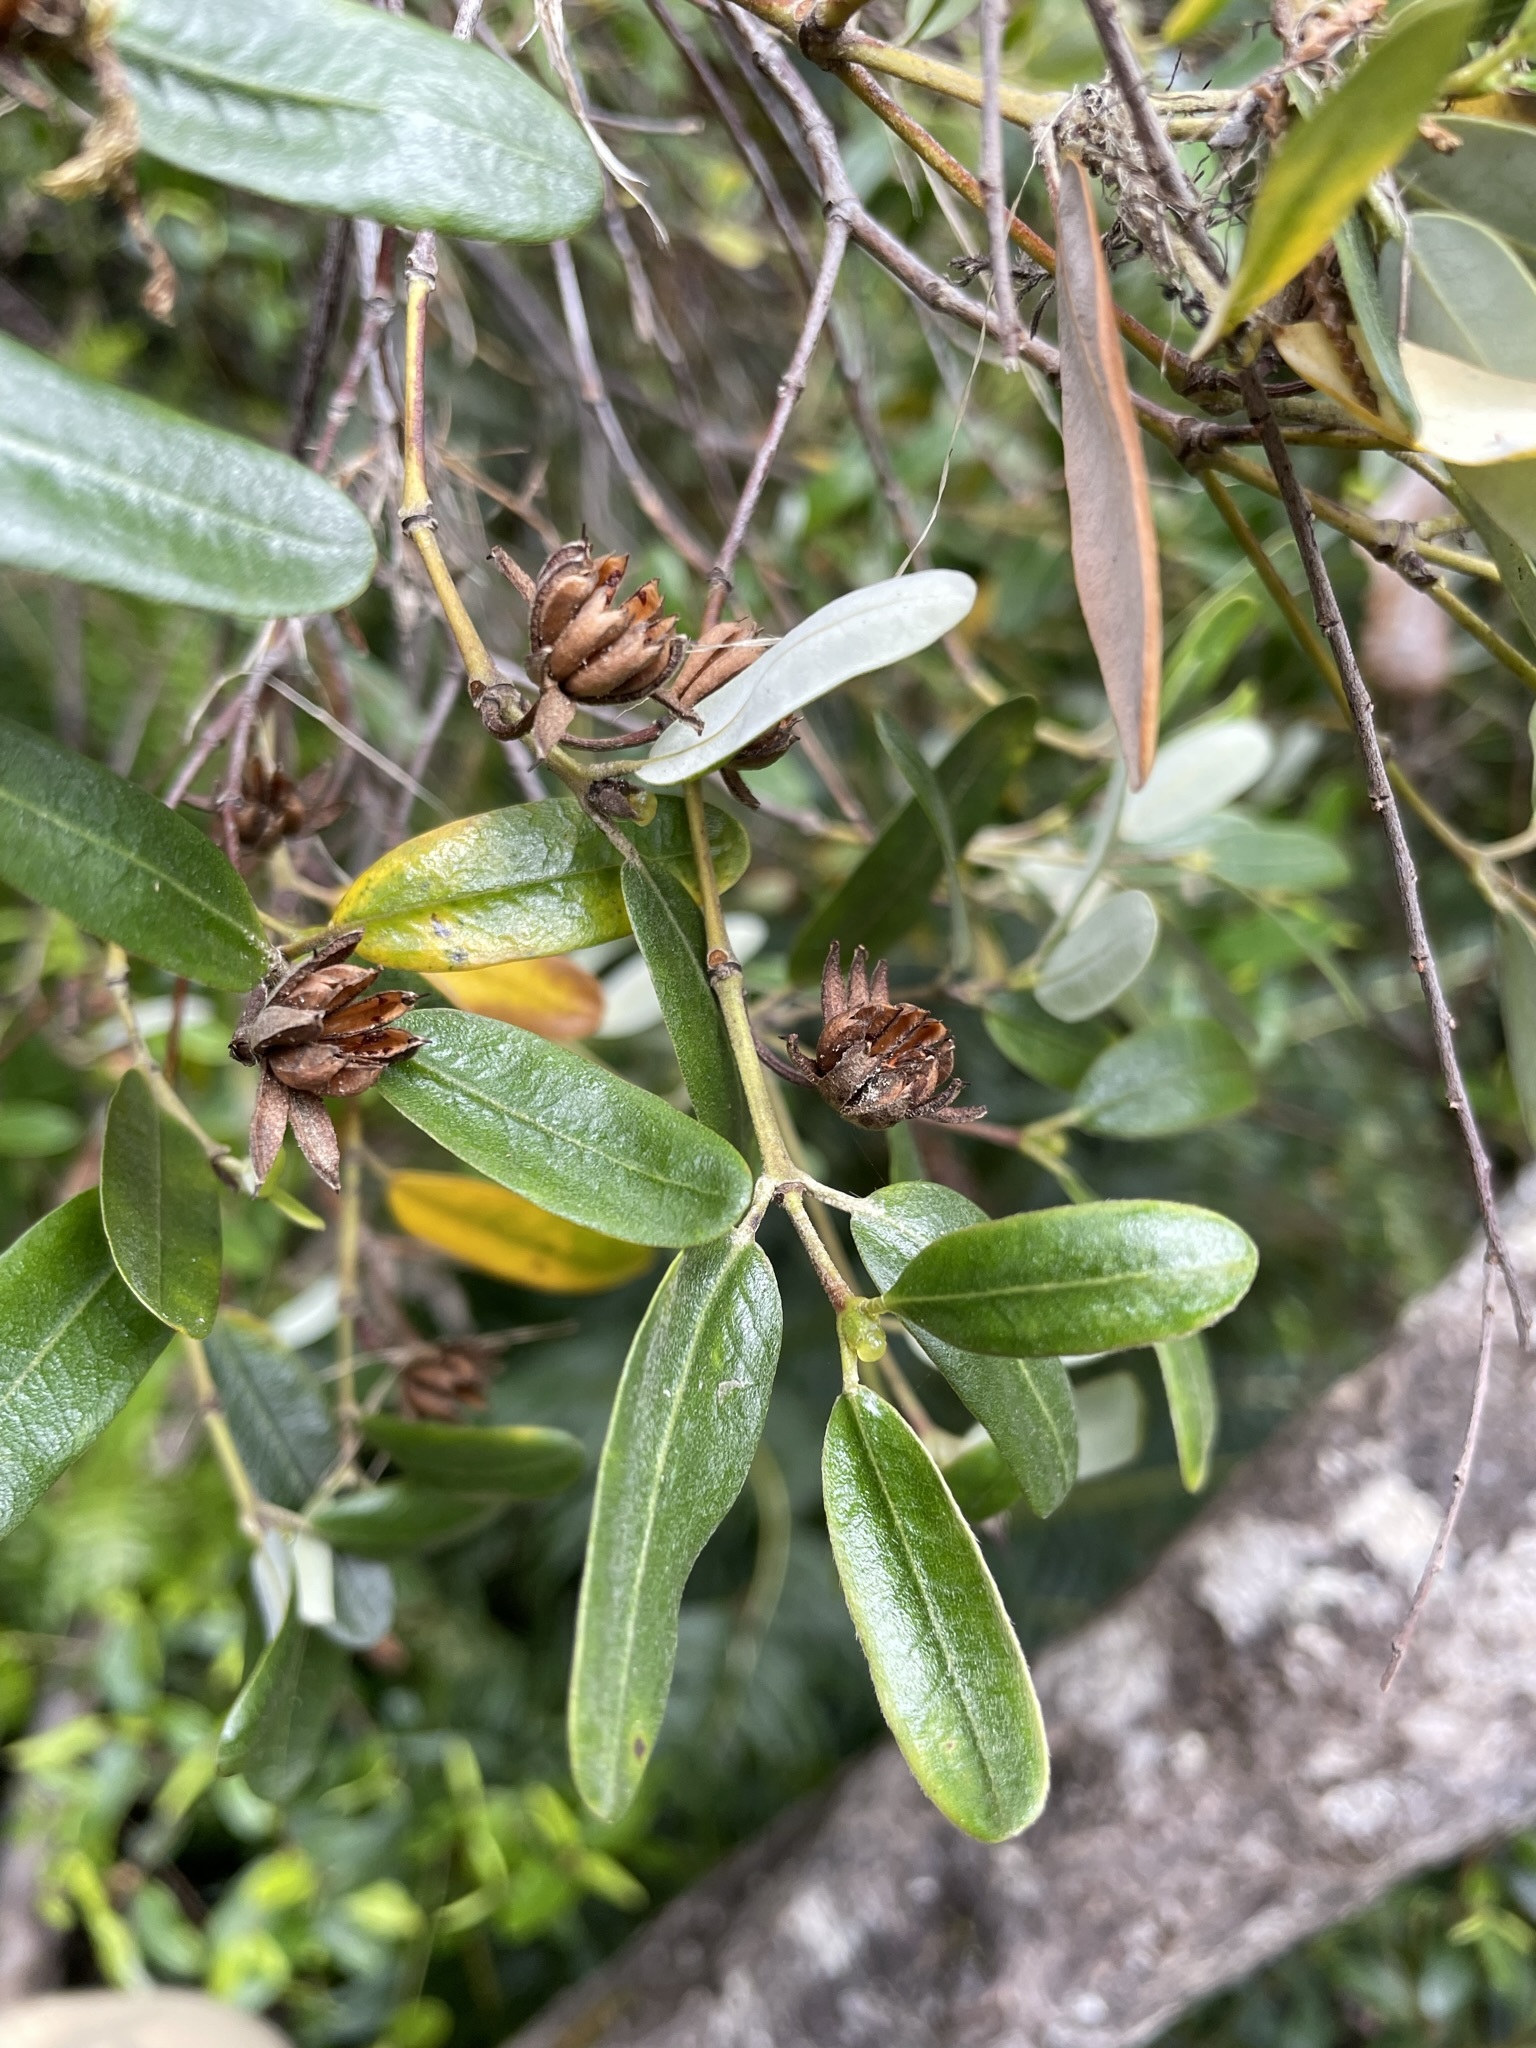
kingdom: Plantae
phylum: Tracheophyta
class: Magnoliopsida
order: Oxalidales
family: Cunoniaceae
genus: Eucryphia
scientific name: Eucryphia lucida
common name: Leatherwood
